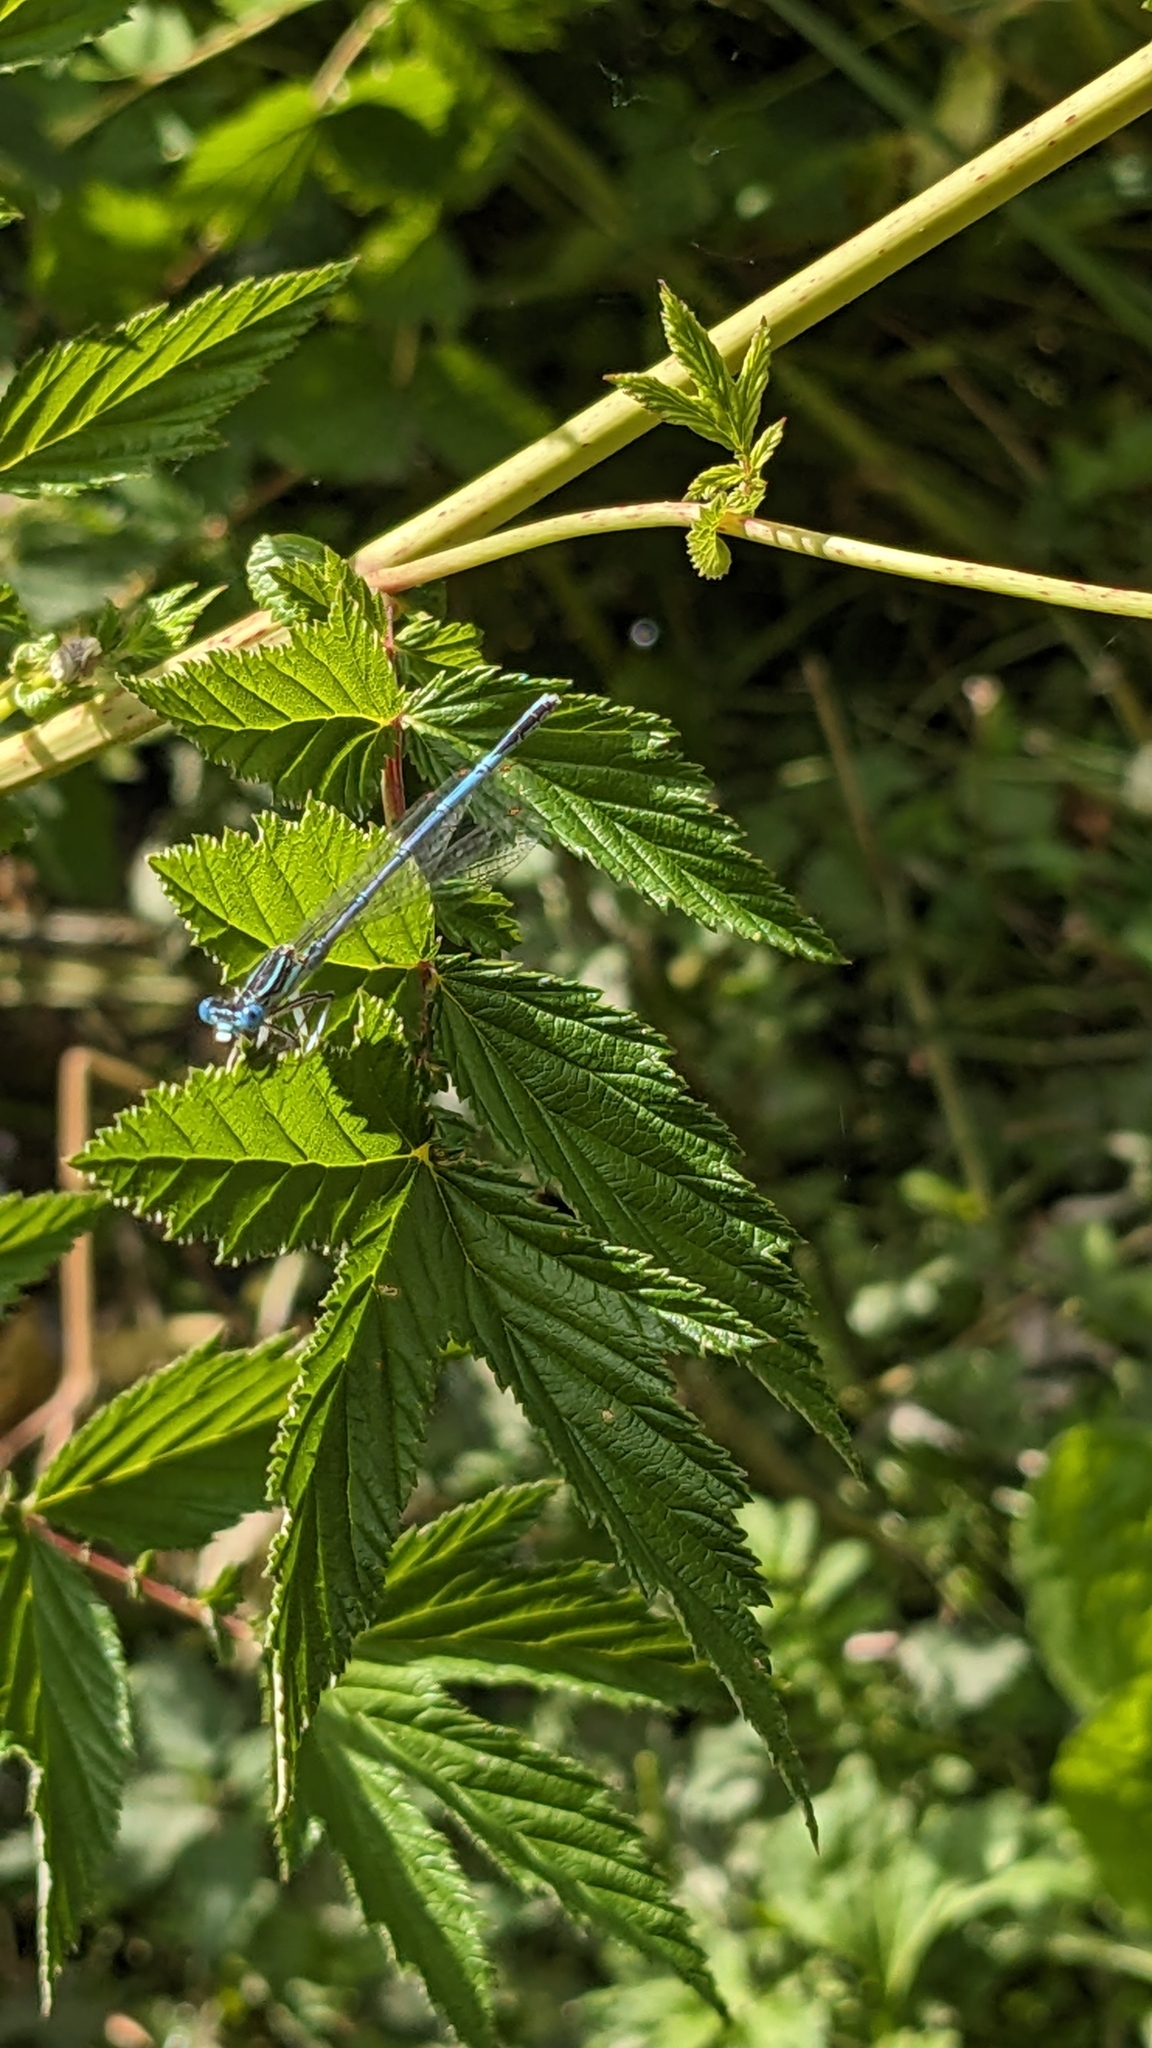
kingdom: Animalia
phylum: Arthropoda
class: Insecta
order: Odonata
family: Platycnemididae
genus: Platycnemis
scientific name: Platycnemis pennipes
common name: White-legged damselfly
